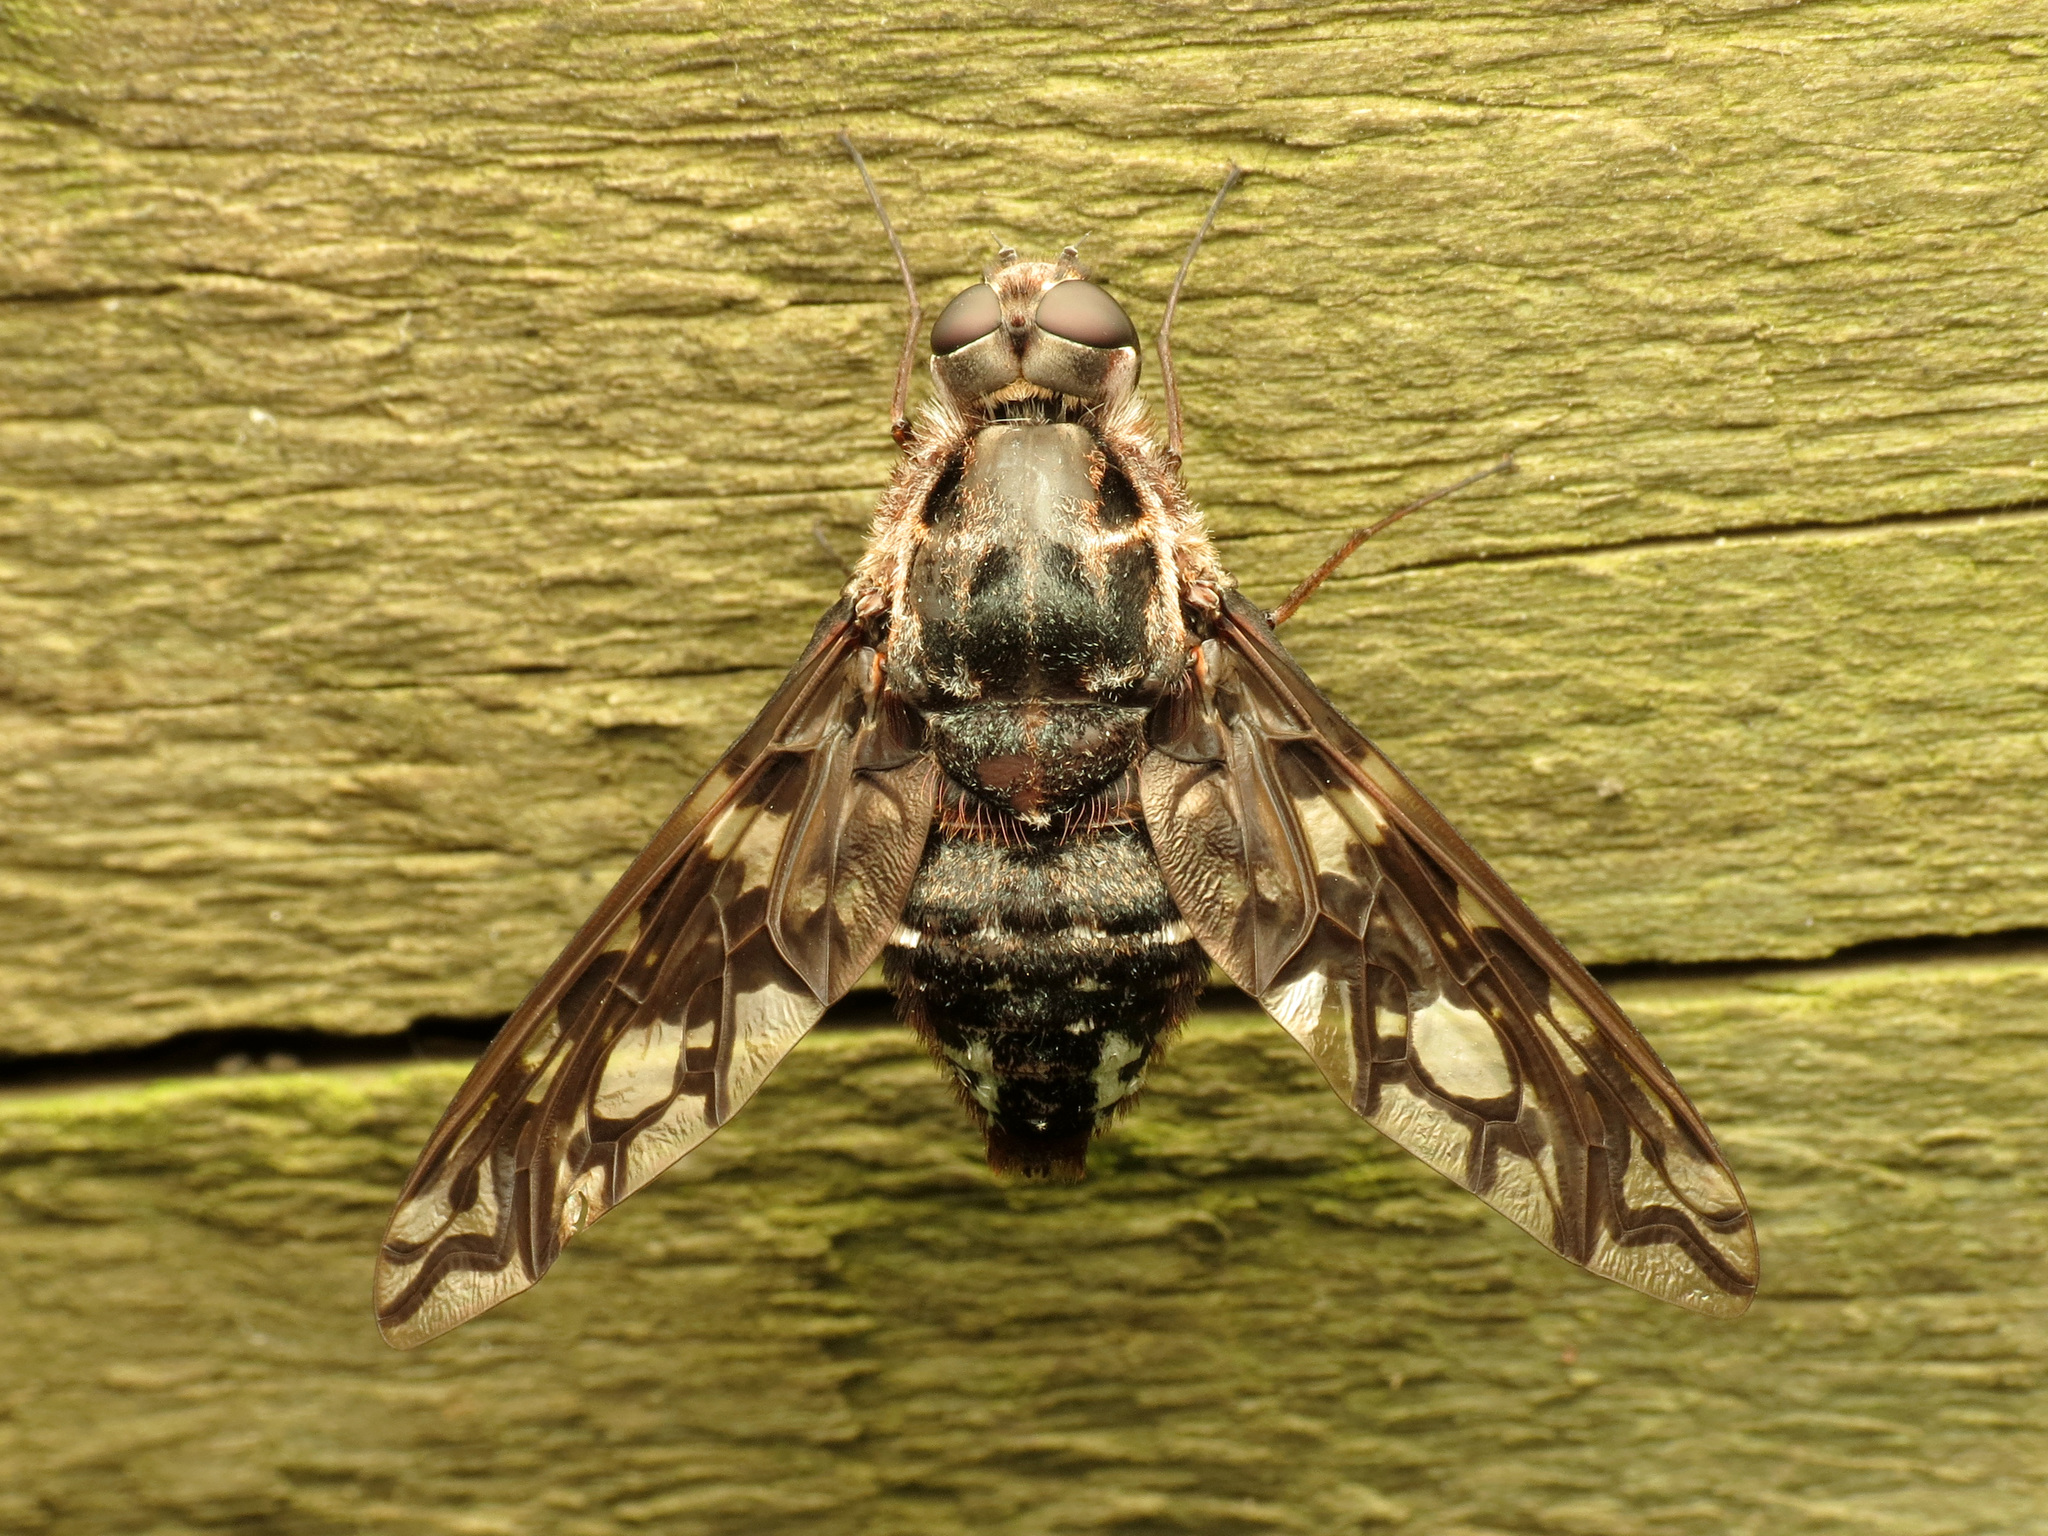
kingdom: Animalia
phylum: Arthropoda
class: Insecta
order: Diptera
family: Bombyliidae
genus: Xenox
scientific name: Xenox tigrinus
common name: Tiger bee fly
